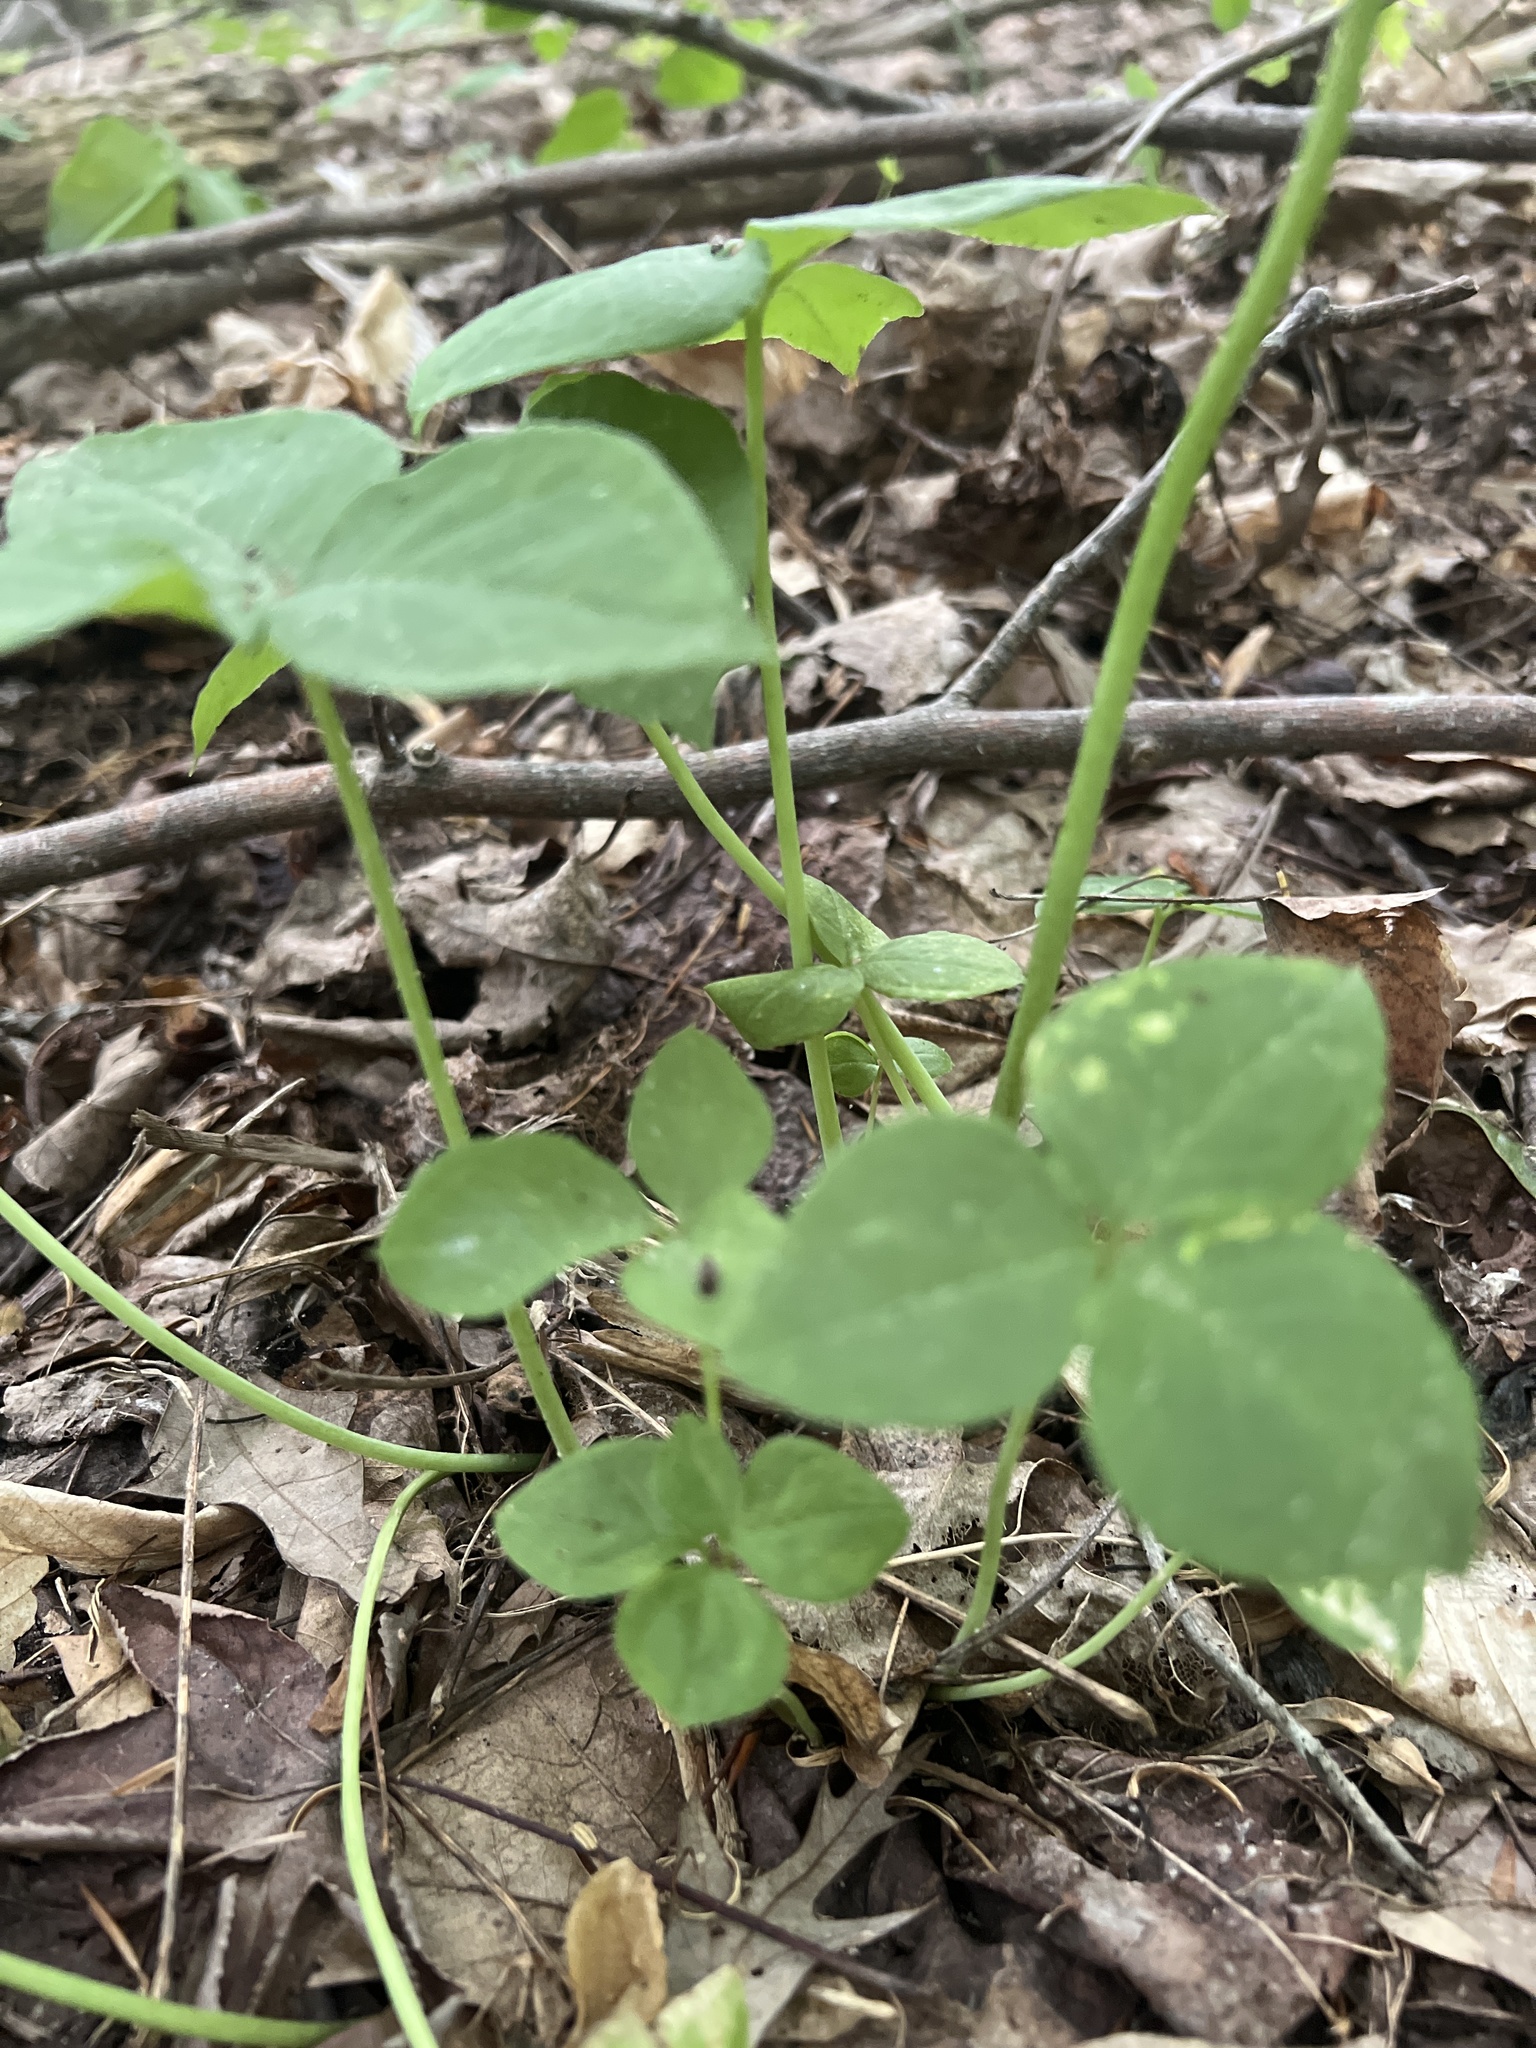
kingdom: Plantae
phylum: Tracheophyta
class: Liliopsida
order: Alismatales
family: Araceae
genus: Arisaema
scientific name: Arisaema triphyllum
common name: Jack-in-the-pulpit
